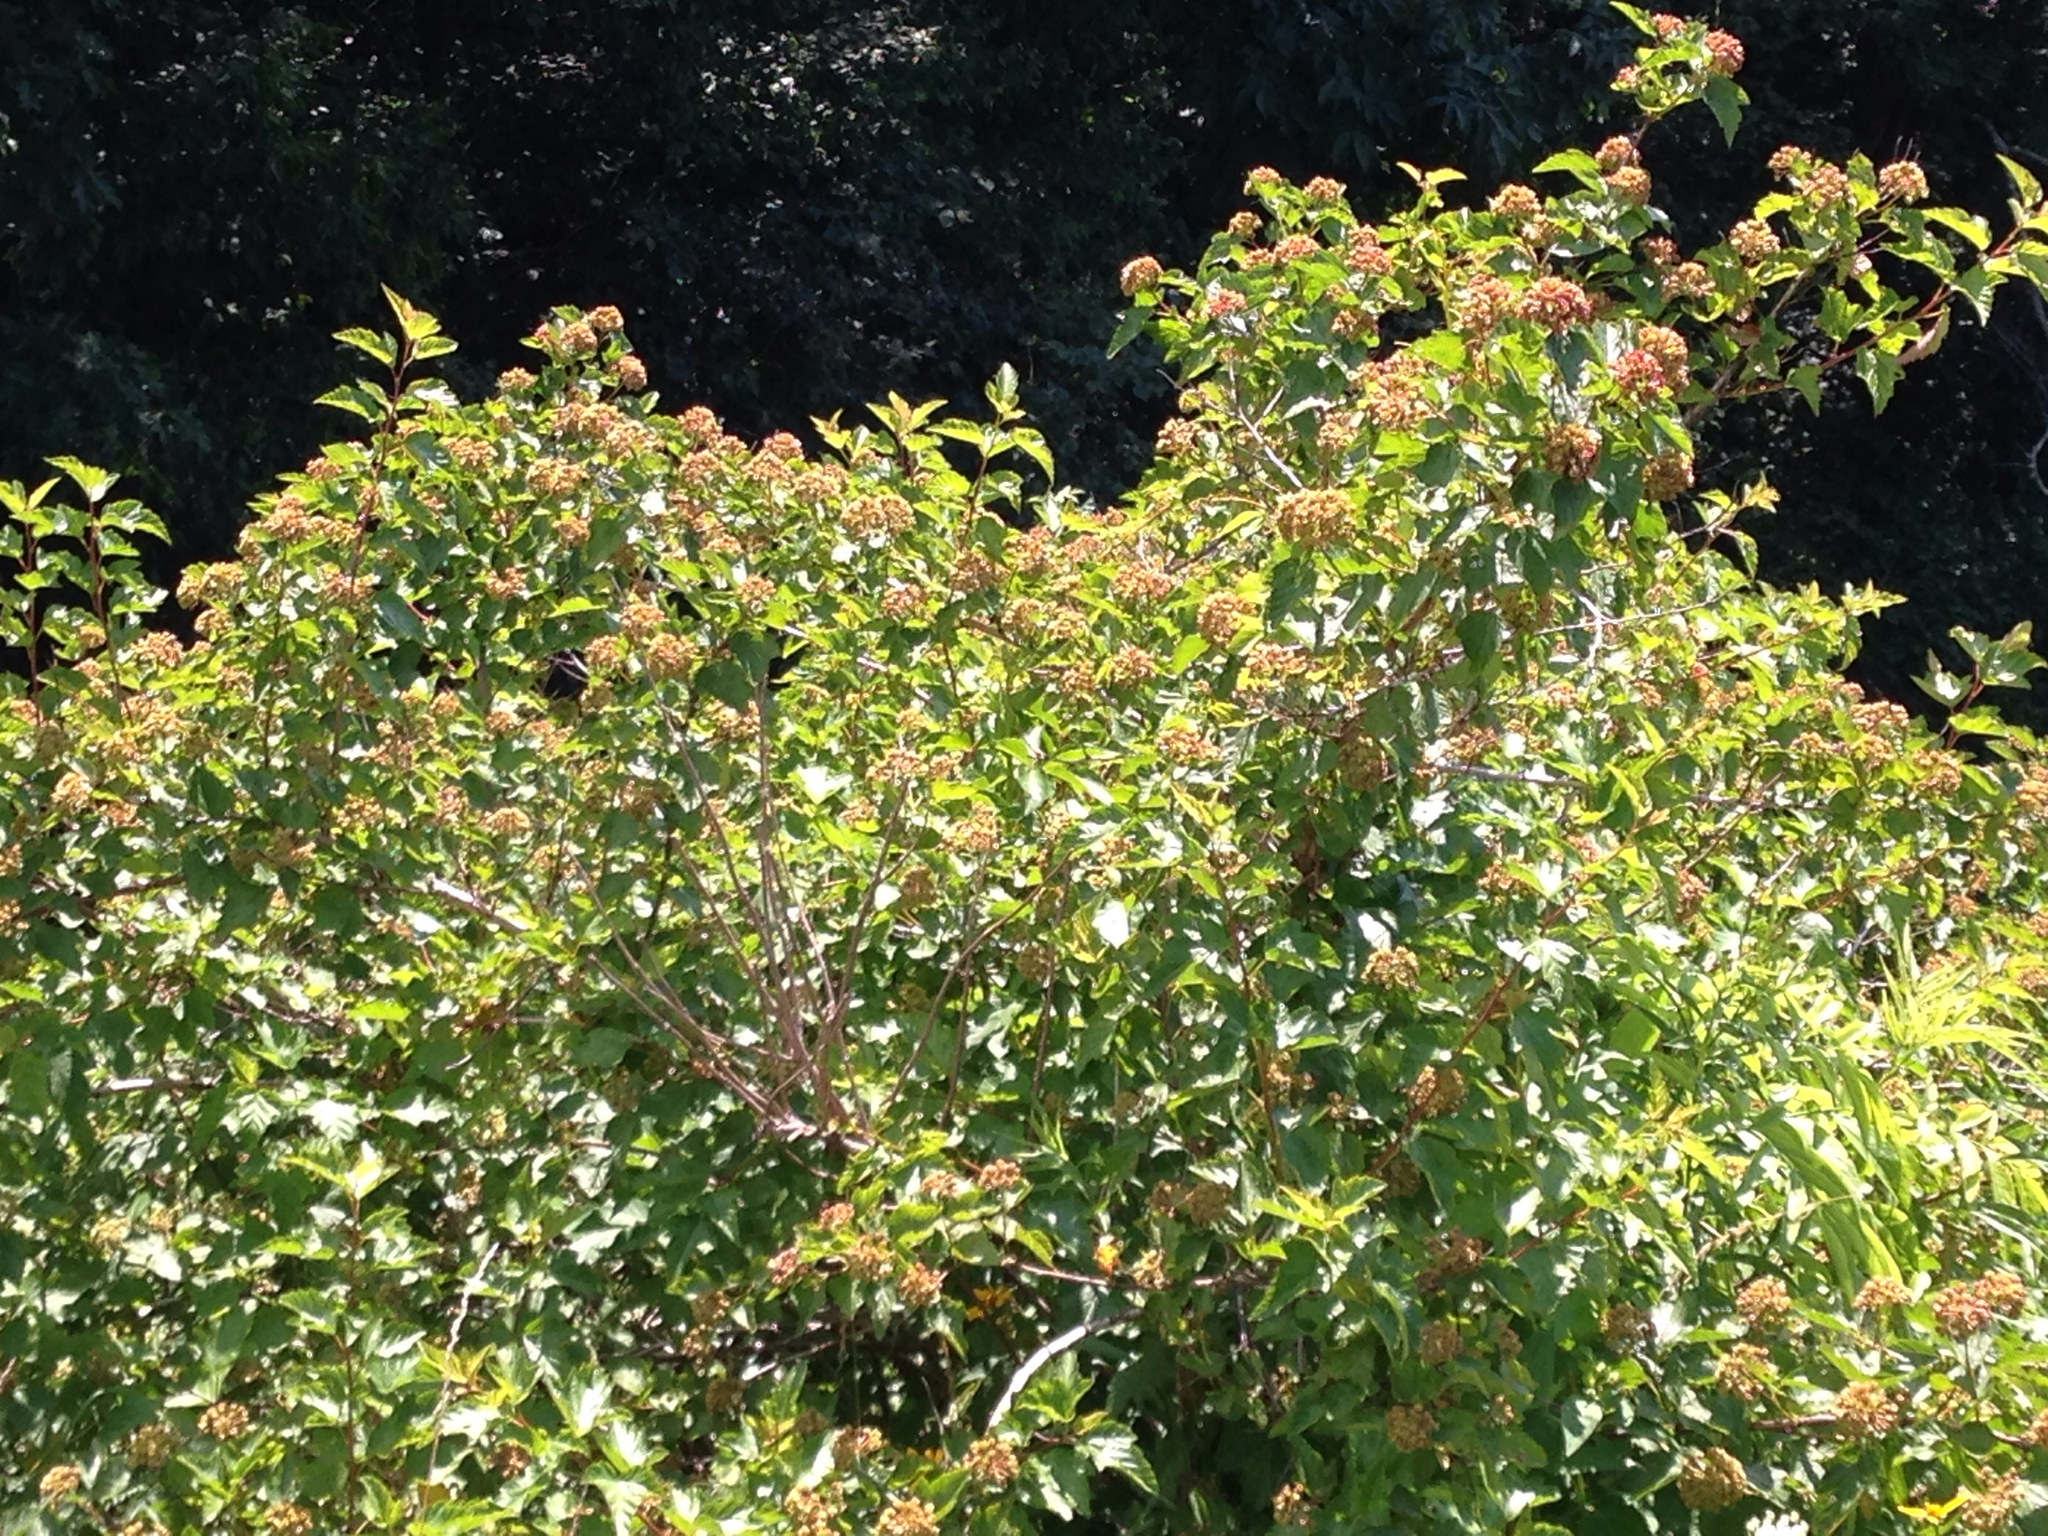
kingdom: Plantae
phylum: Tracheophyta
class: Magnoliopsida
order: Rosales
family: Rosaceae
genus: Physocarpus
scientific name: Physocarpus opulifolius
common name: Ninebark
